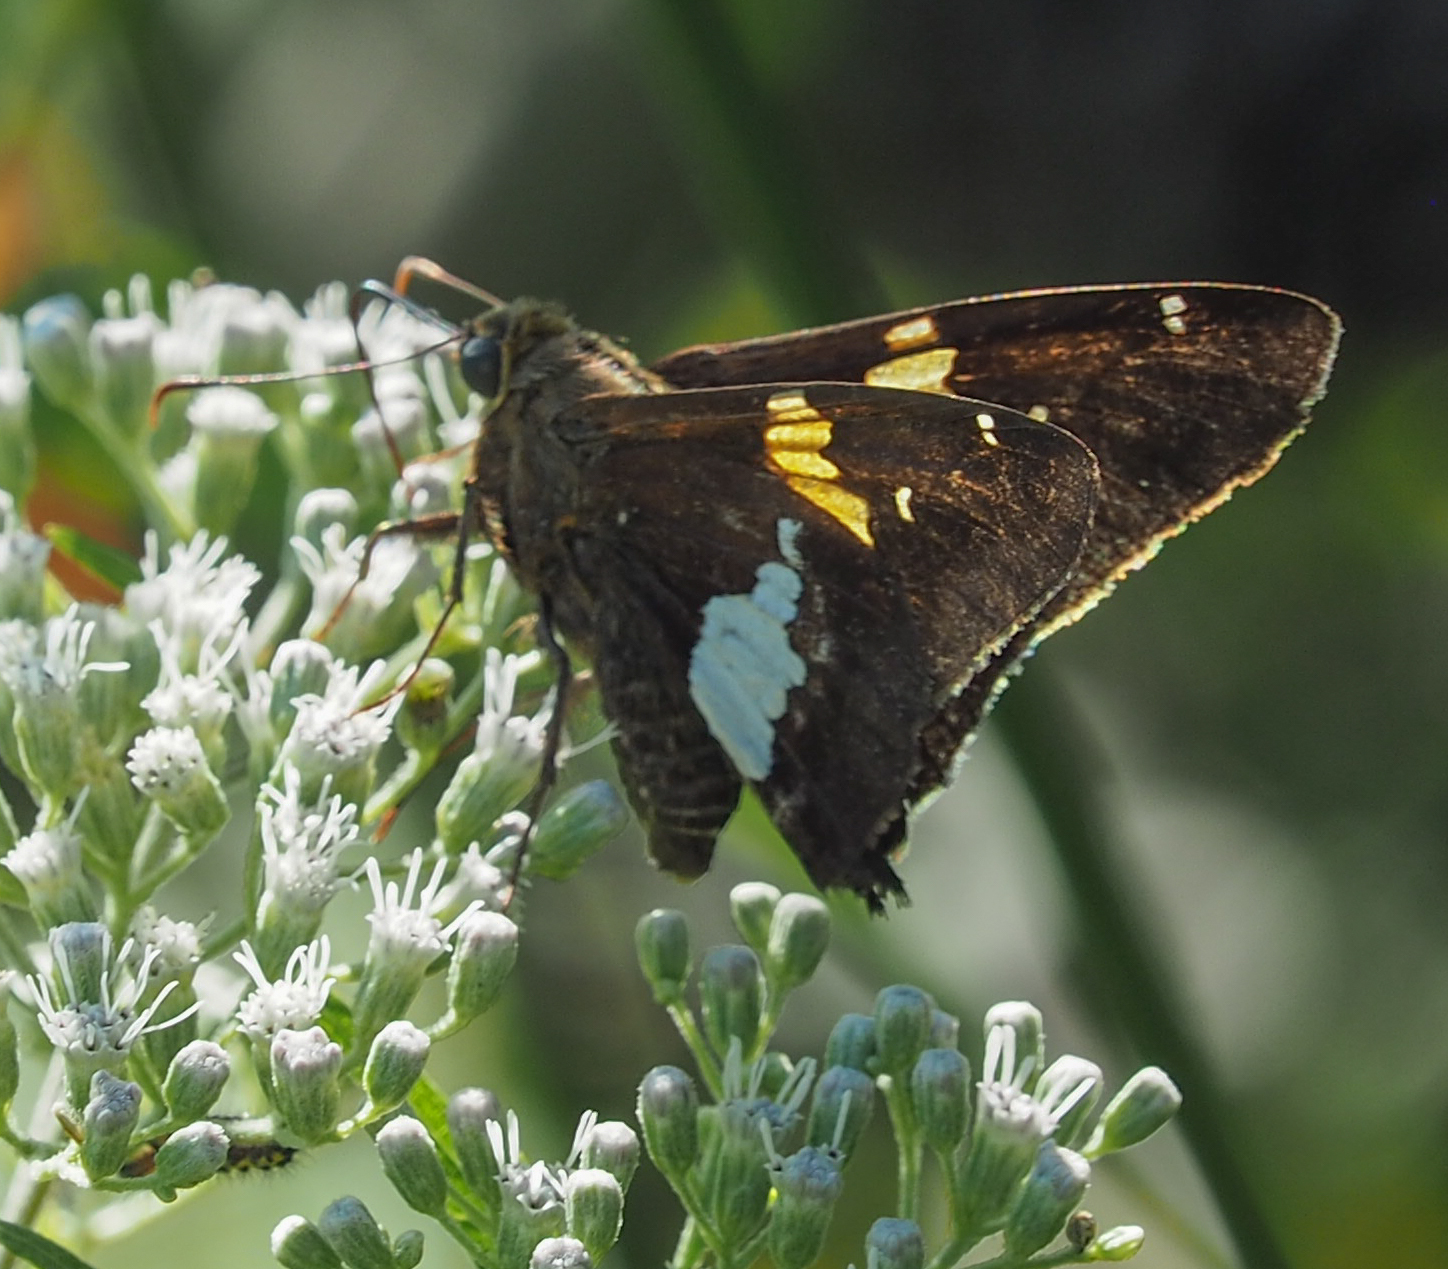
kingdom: Animalia
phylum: Arthropoda
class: Insecta
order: Lepidoptera
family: Hesperiidae
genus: Epargyreus
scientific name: Epargyreus clarus
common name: Silver-spotted skipper
